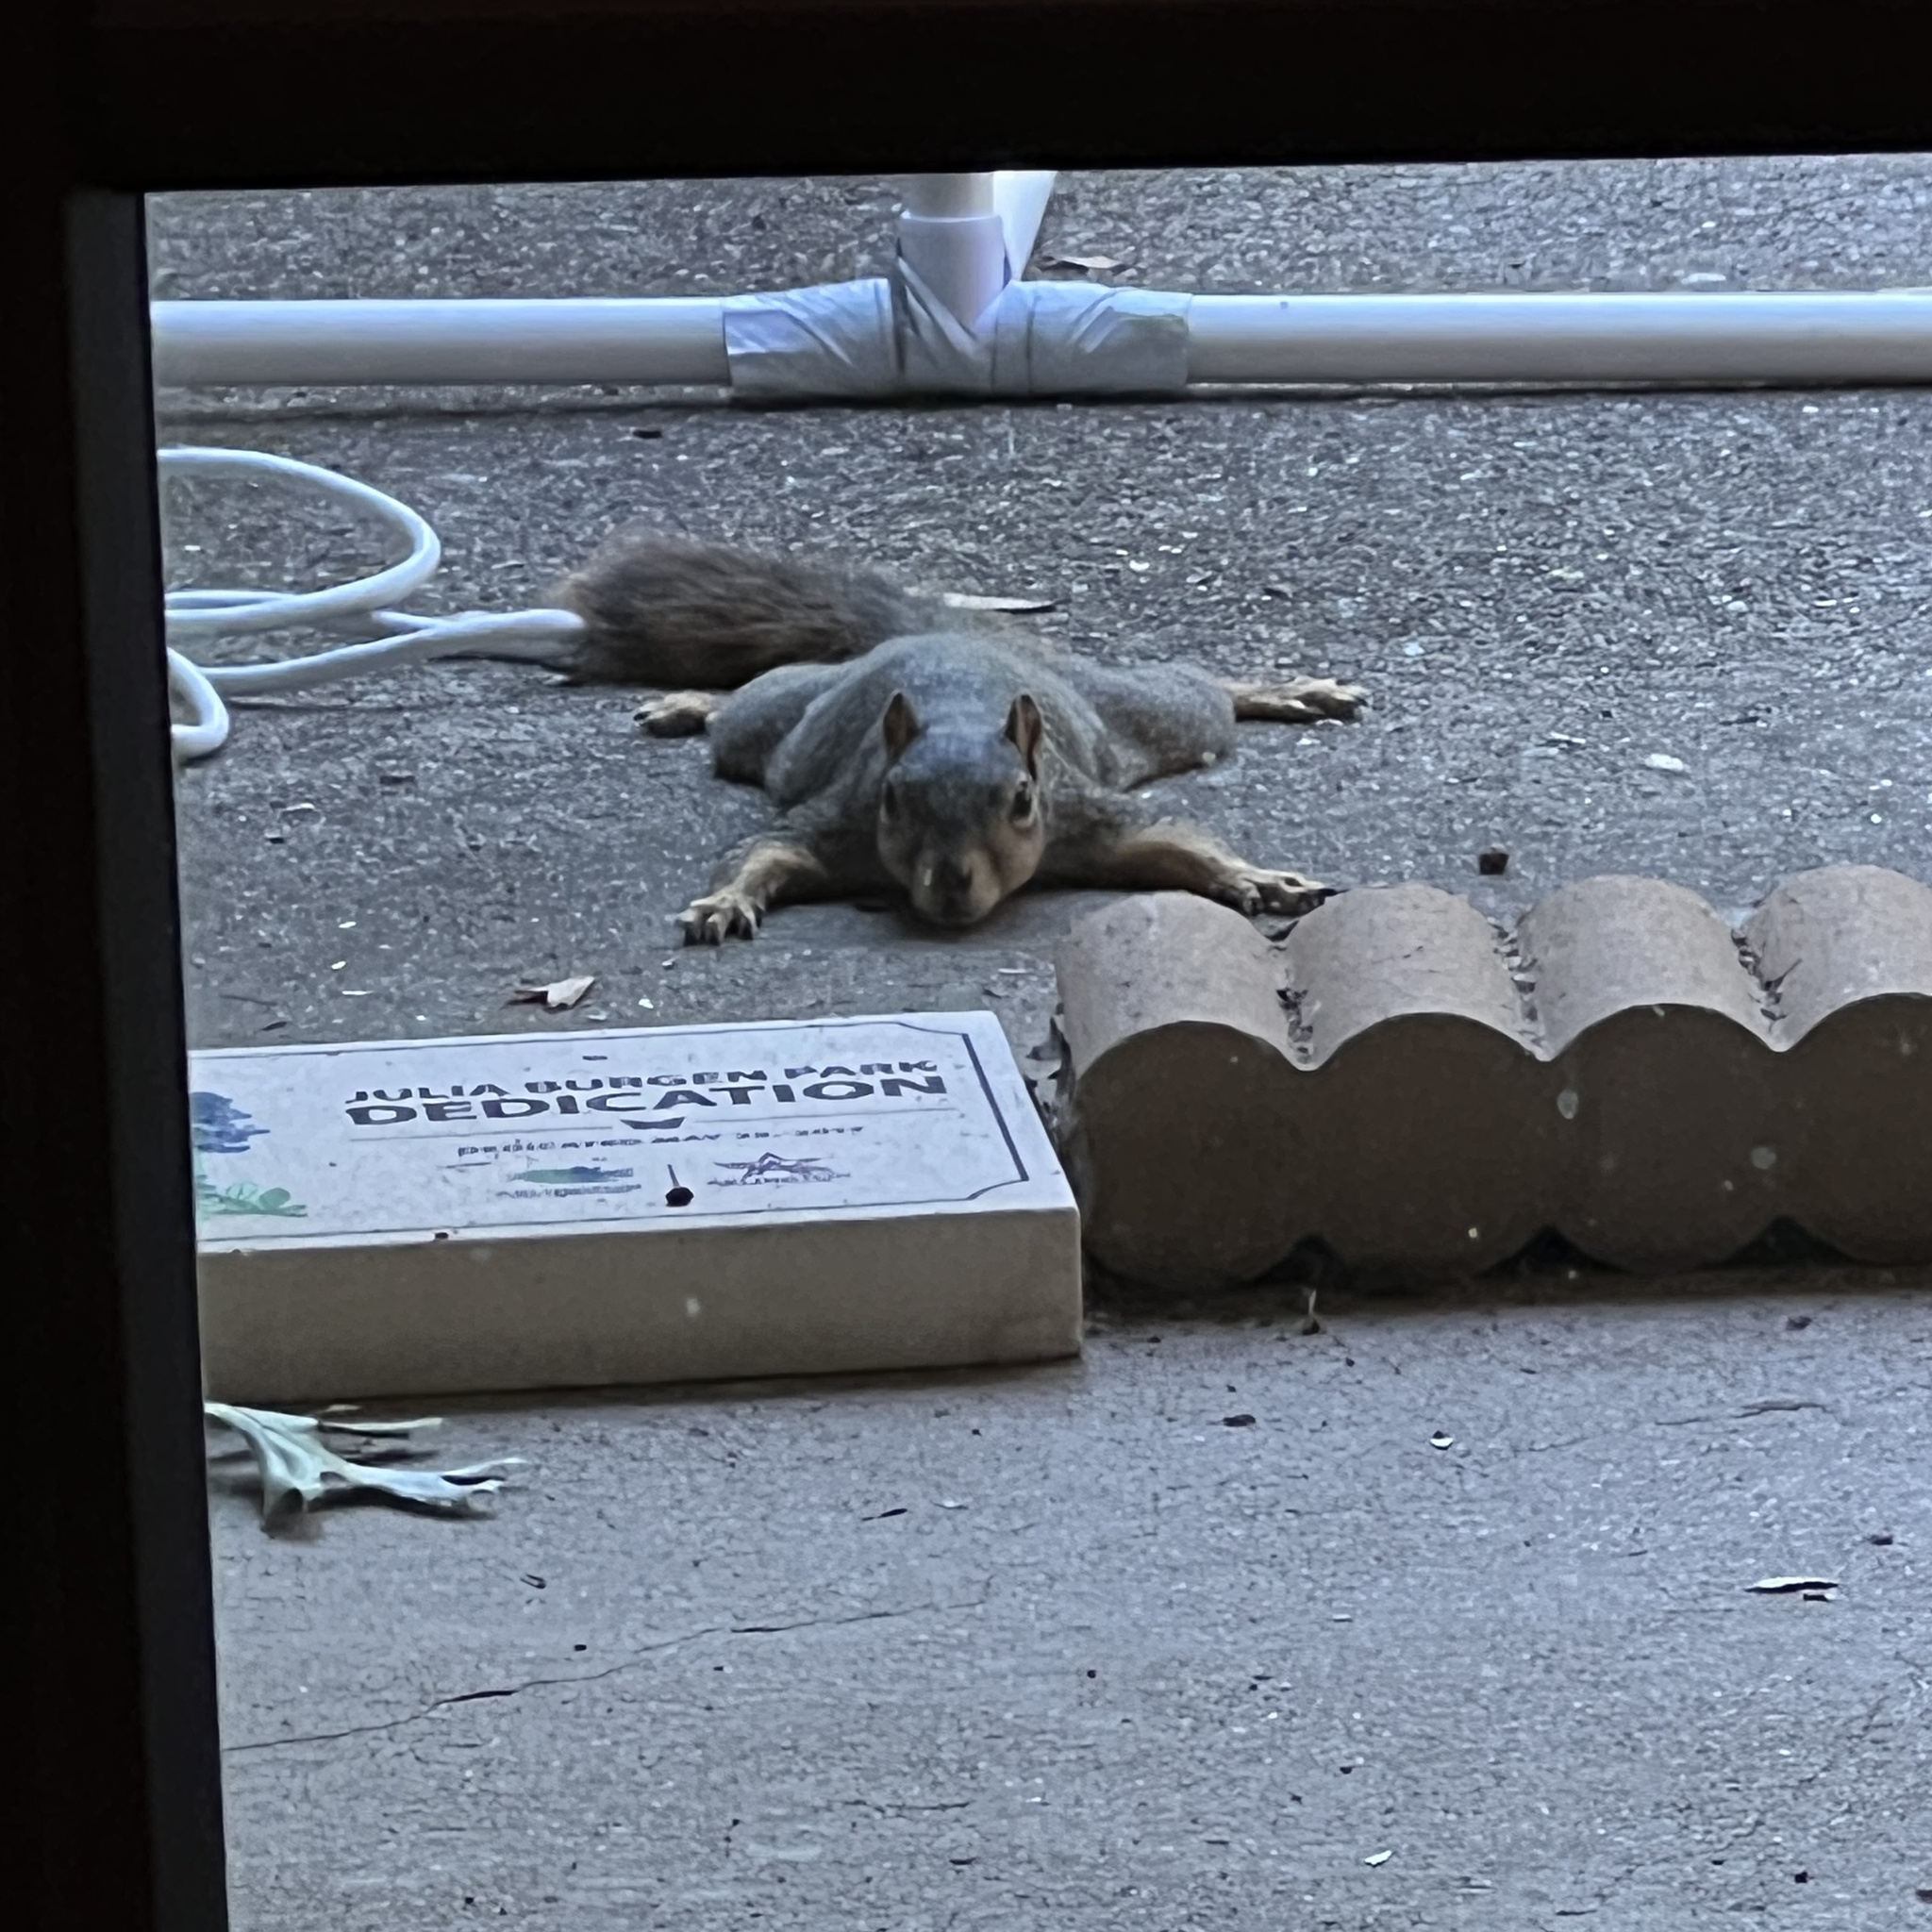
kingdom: Animalia
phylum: Chordata
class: Mammalia
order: Rodentia
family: Sciuridae
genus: Sciurus
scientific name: Sciurus niger
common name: Fox squirrel
